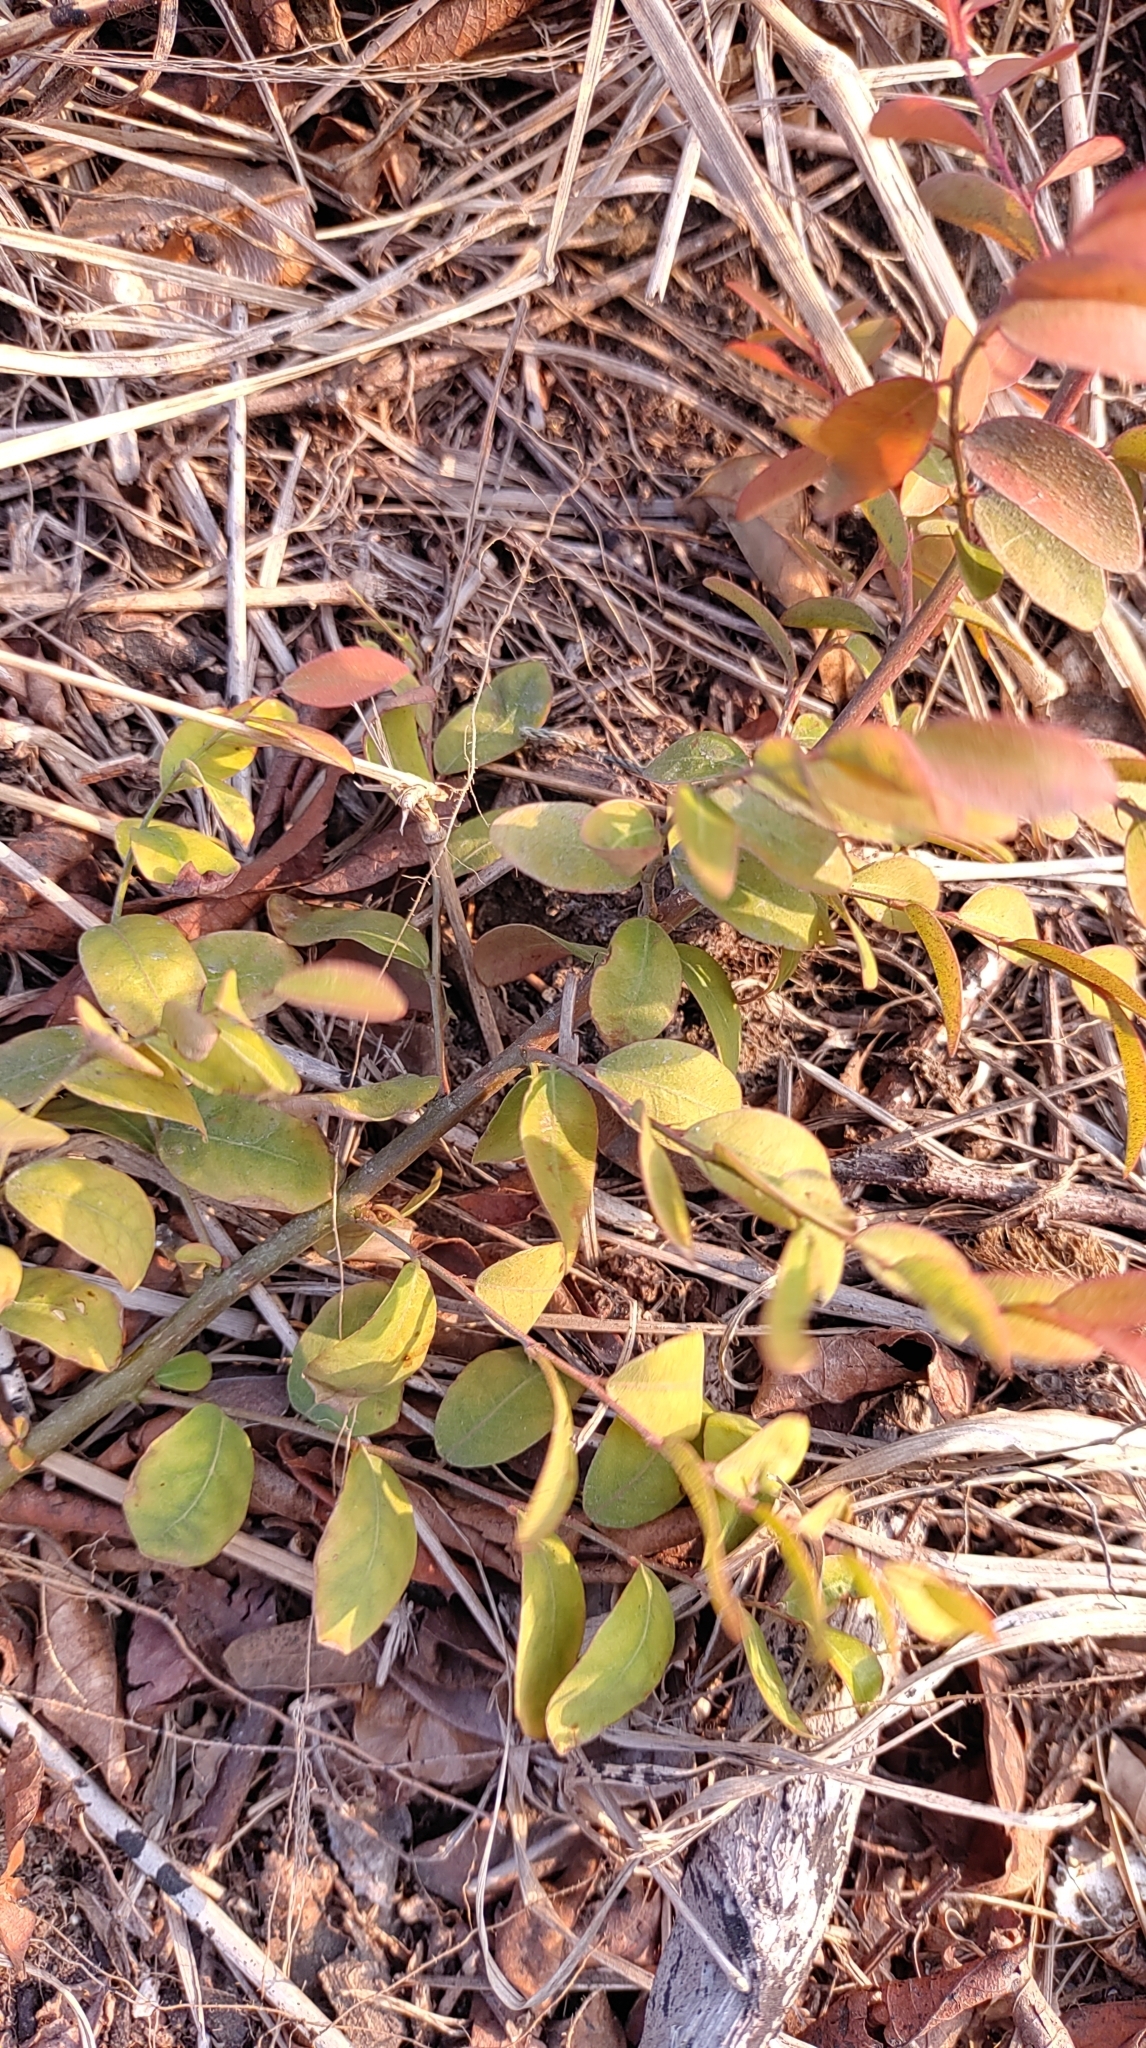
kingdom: Plantae
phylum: Tracheophyta
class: Magnoliopsida
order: Malpighiales
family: Phyllanthaceae
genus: Flueggea
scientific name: Flueggea virosa
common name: Common bushweed
